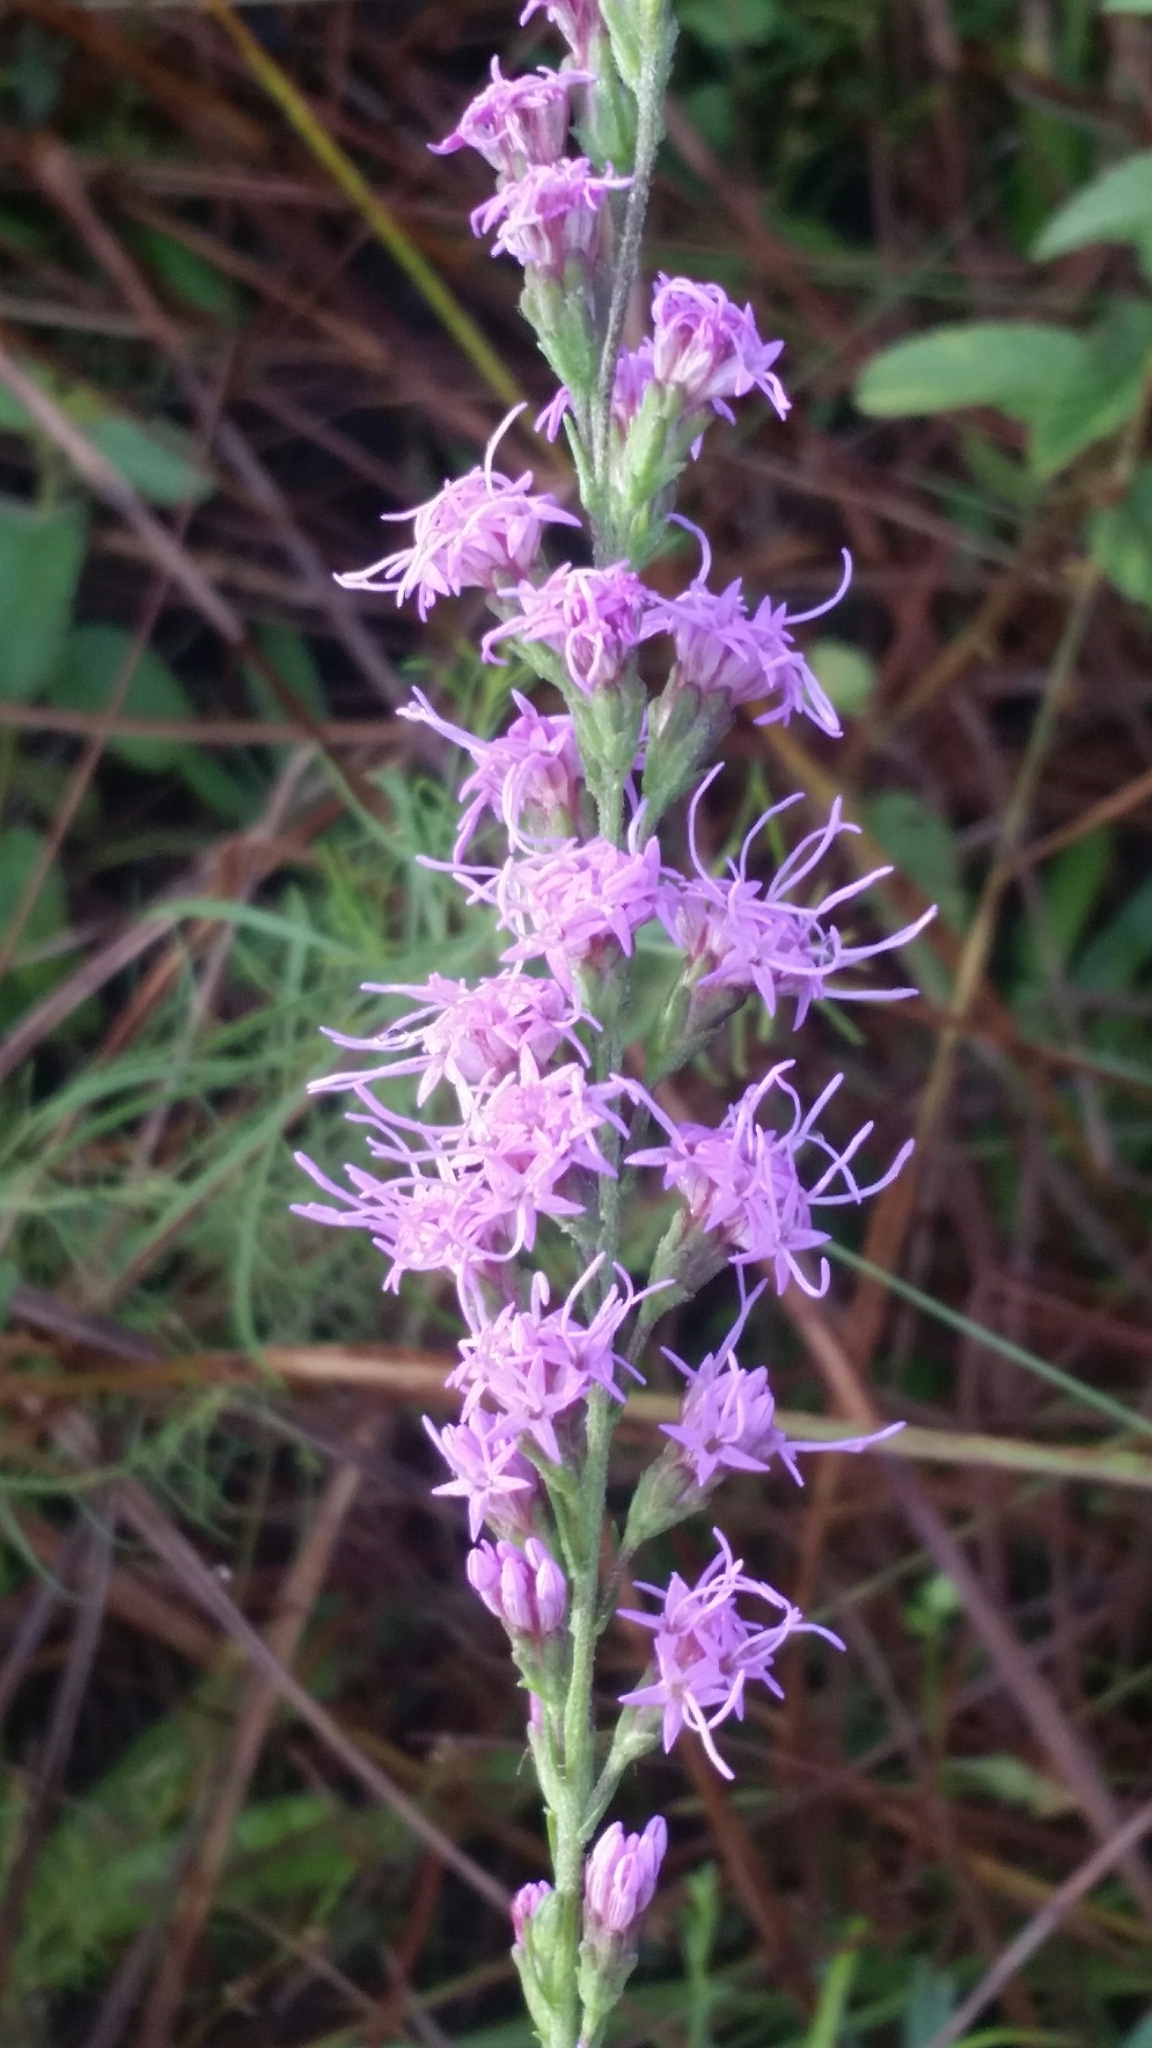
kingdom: Plantae
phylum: Tracheophyta
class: Magnoliopsida
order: Asterales
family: Asteraceae
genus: Liatris
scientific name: Liatris gracilis
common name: Slender gayfeather
